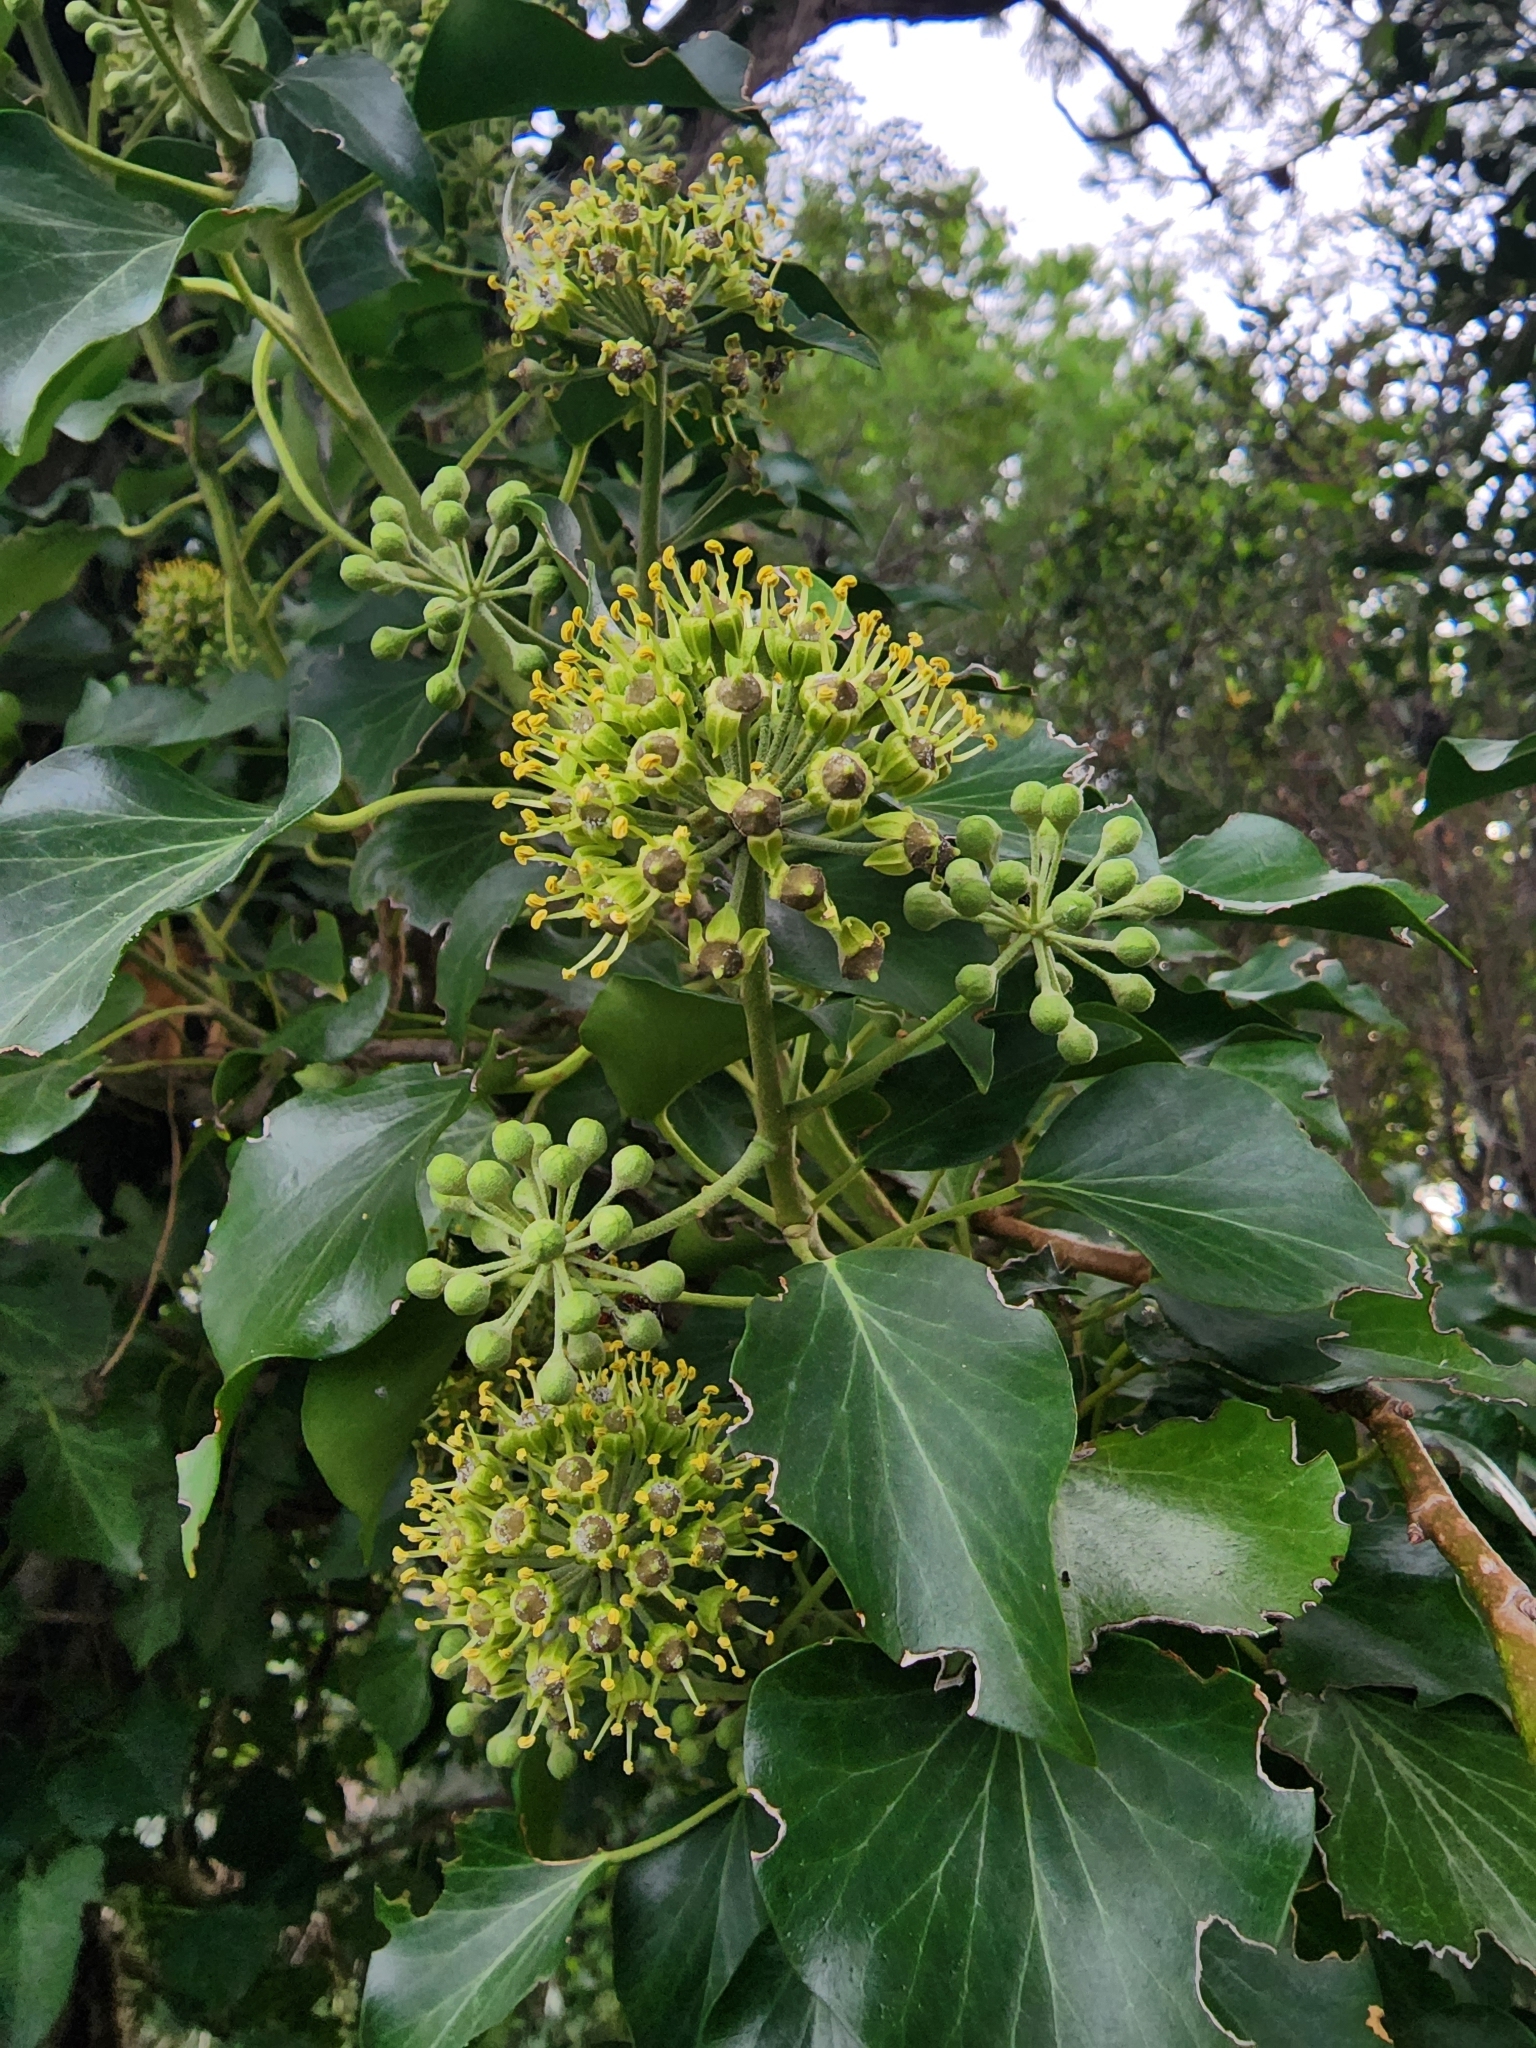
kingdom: Plantae
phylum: Tracheophyta
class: Magnoliopsida
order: Apiales
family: Araliaceae
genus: Hedera
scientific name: Hedera helix
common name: Ivy
